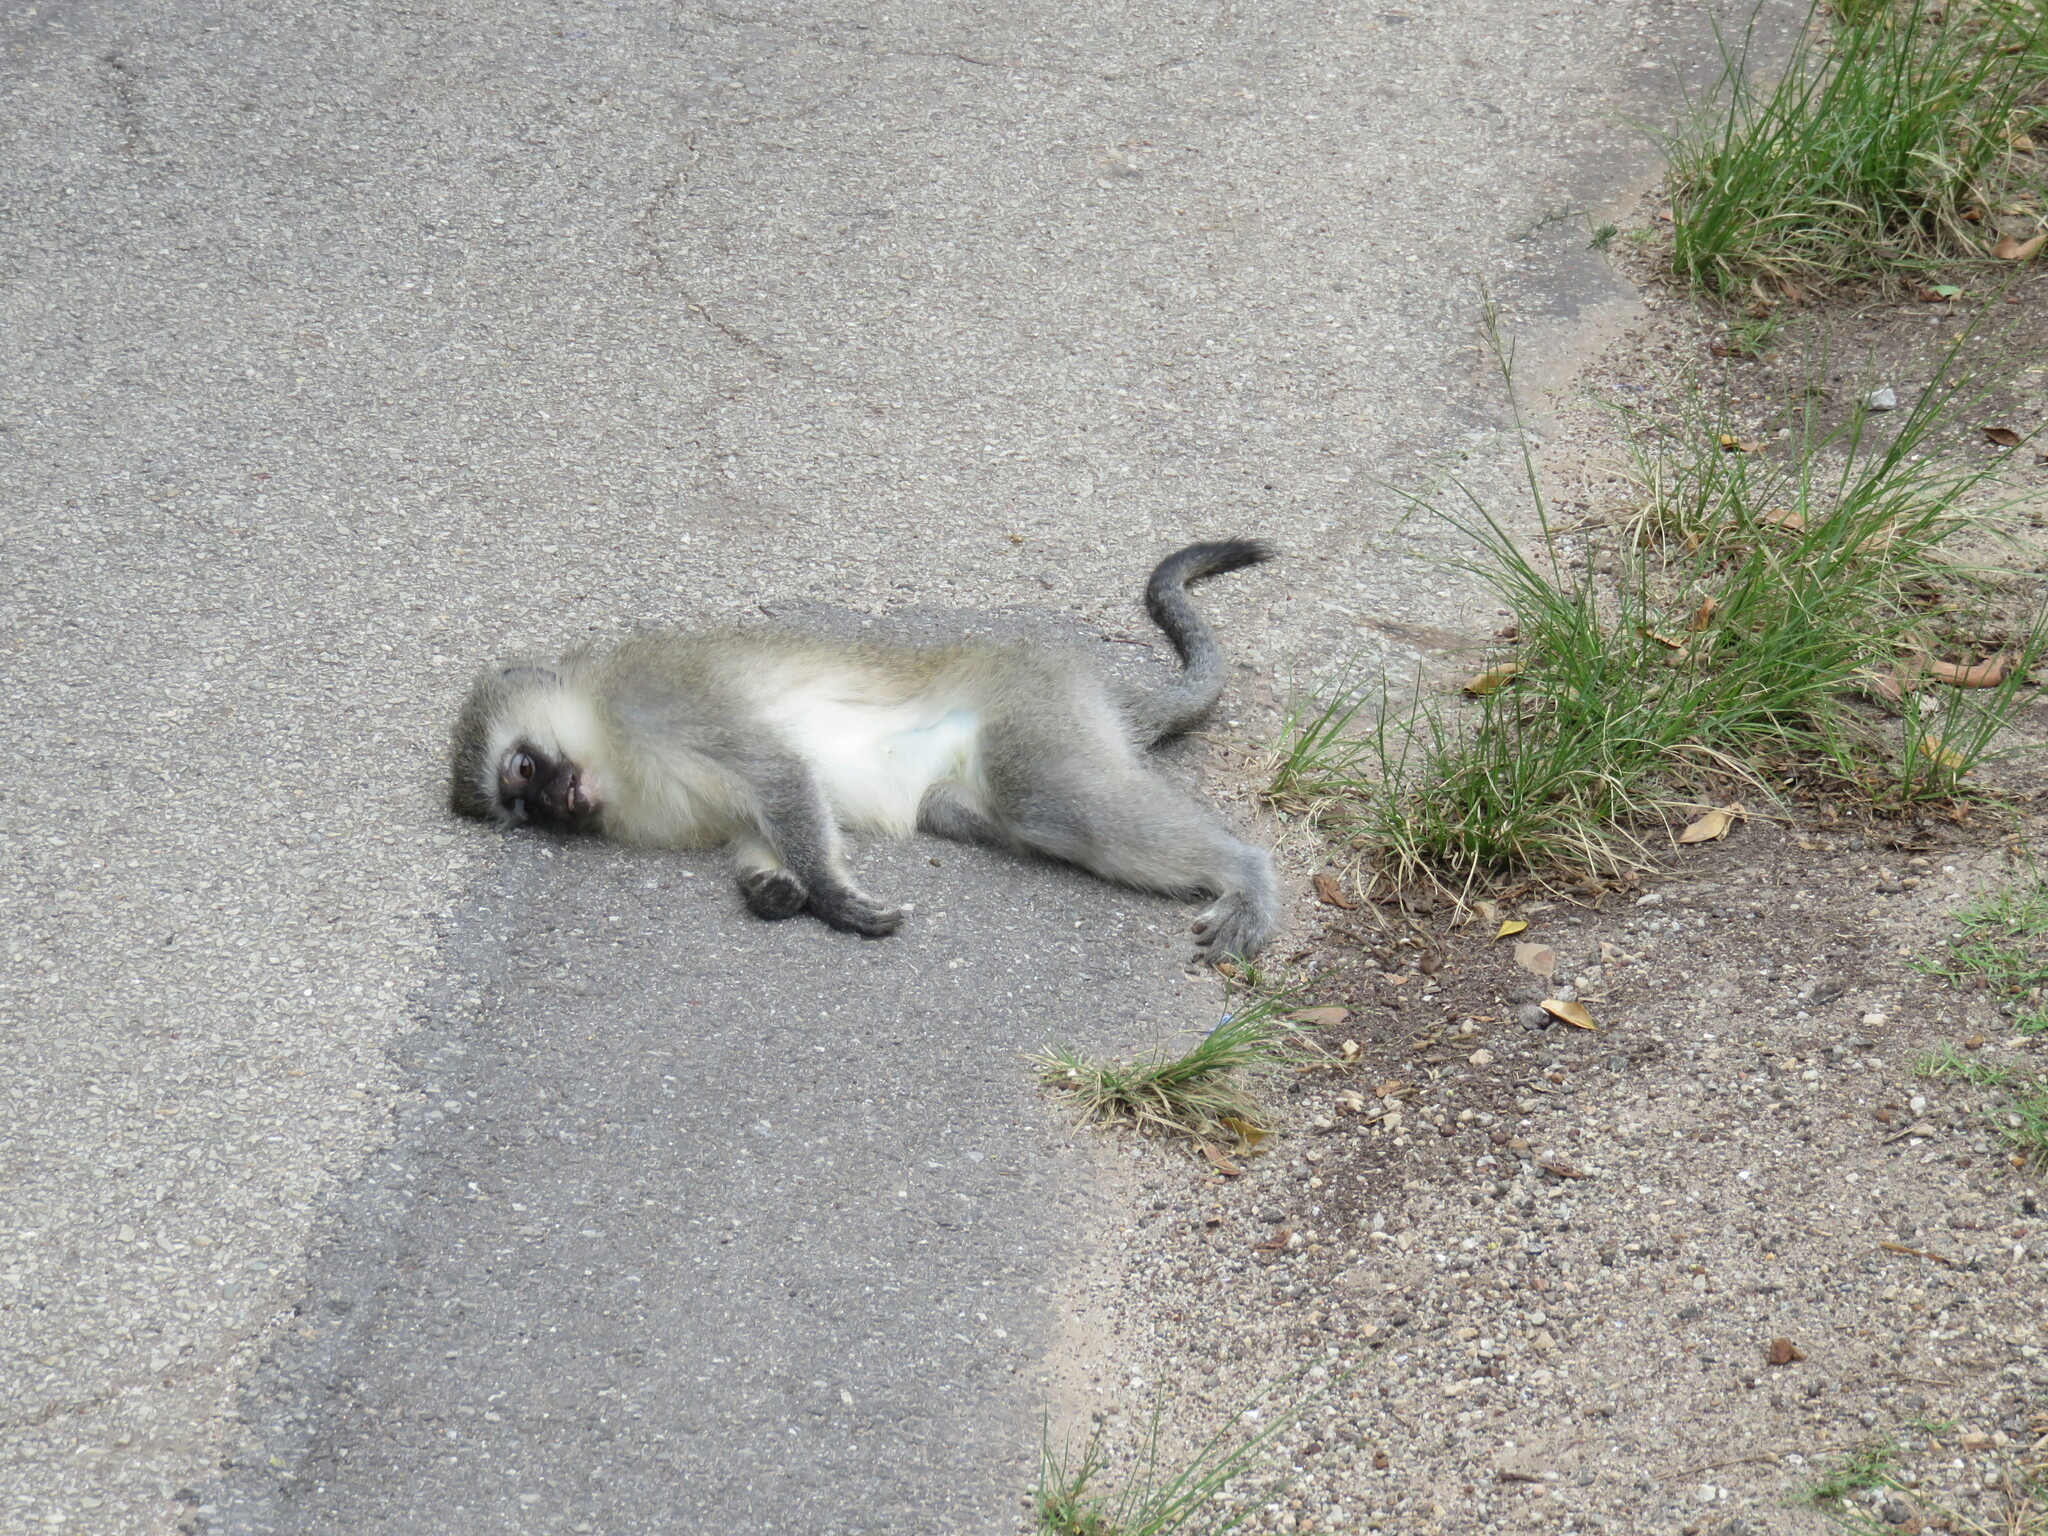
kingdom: Animalia
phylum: Chordata
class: Mammalia
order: Primates
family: Cercopithecidae
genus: Chlorocebus
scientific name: Chlorocebus pygerythrus
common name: Vervet monkey
